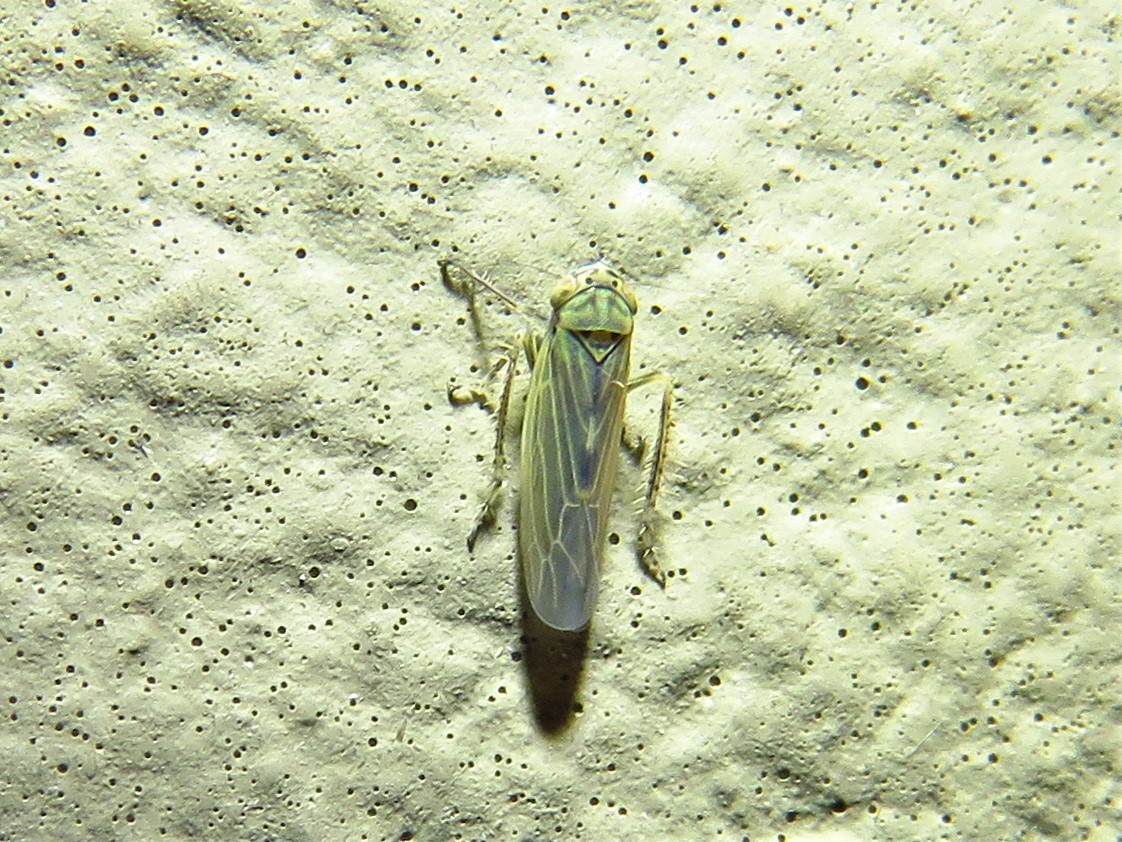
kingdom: Animalia
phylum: Arthropoda
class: Insecta
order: Hemiptera
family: Cicadellidae
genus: Macrosteles
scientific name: Macrosteles quadrilineatus
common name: Aster leafhopper
